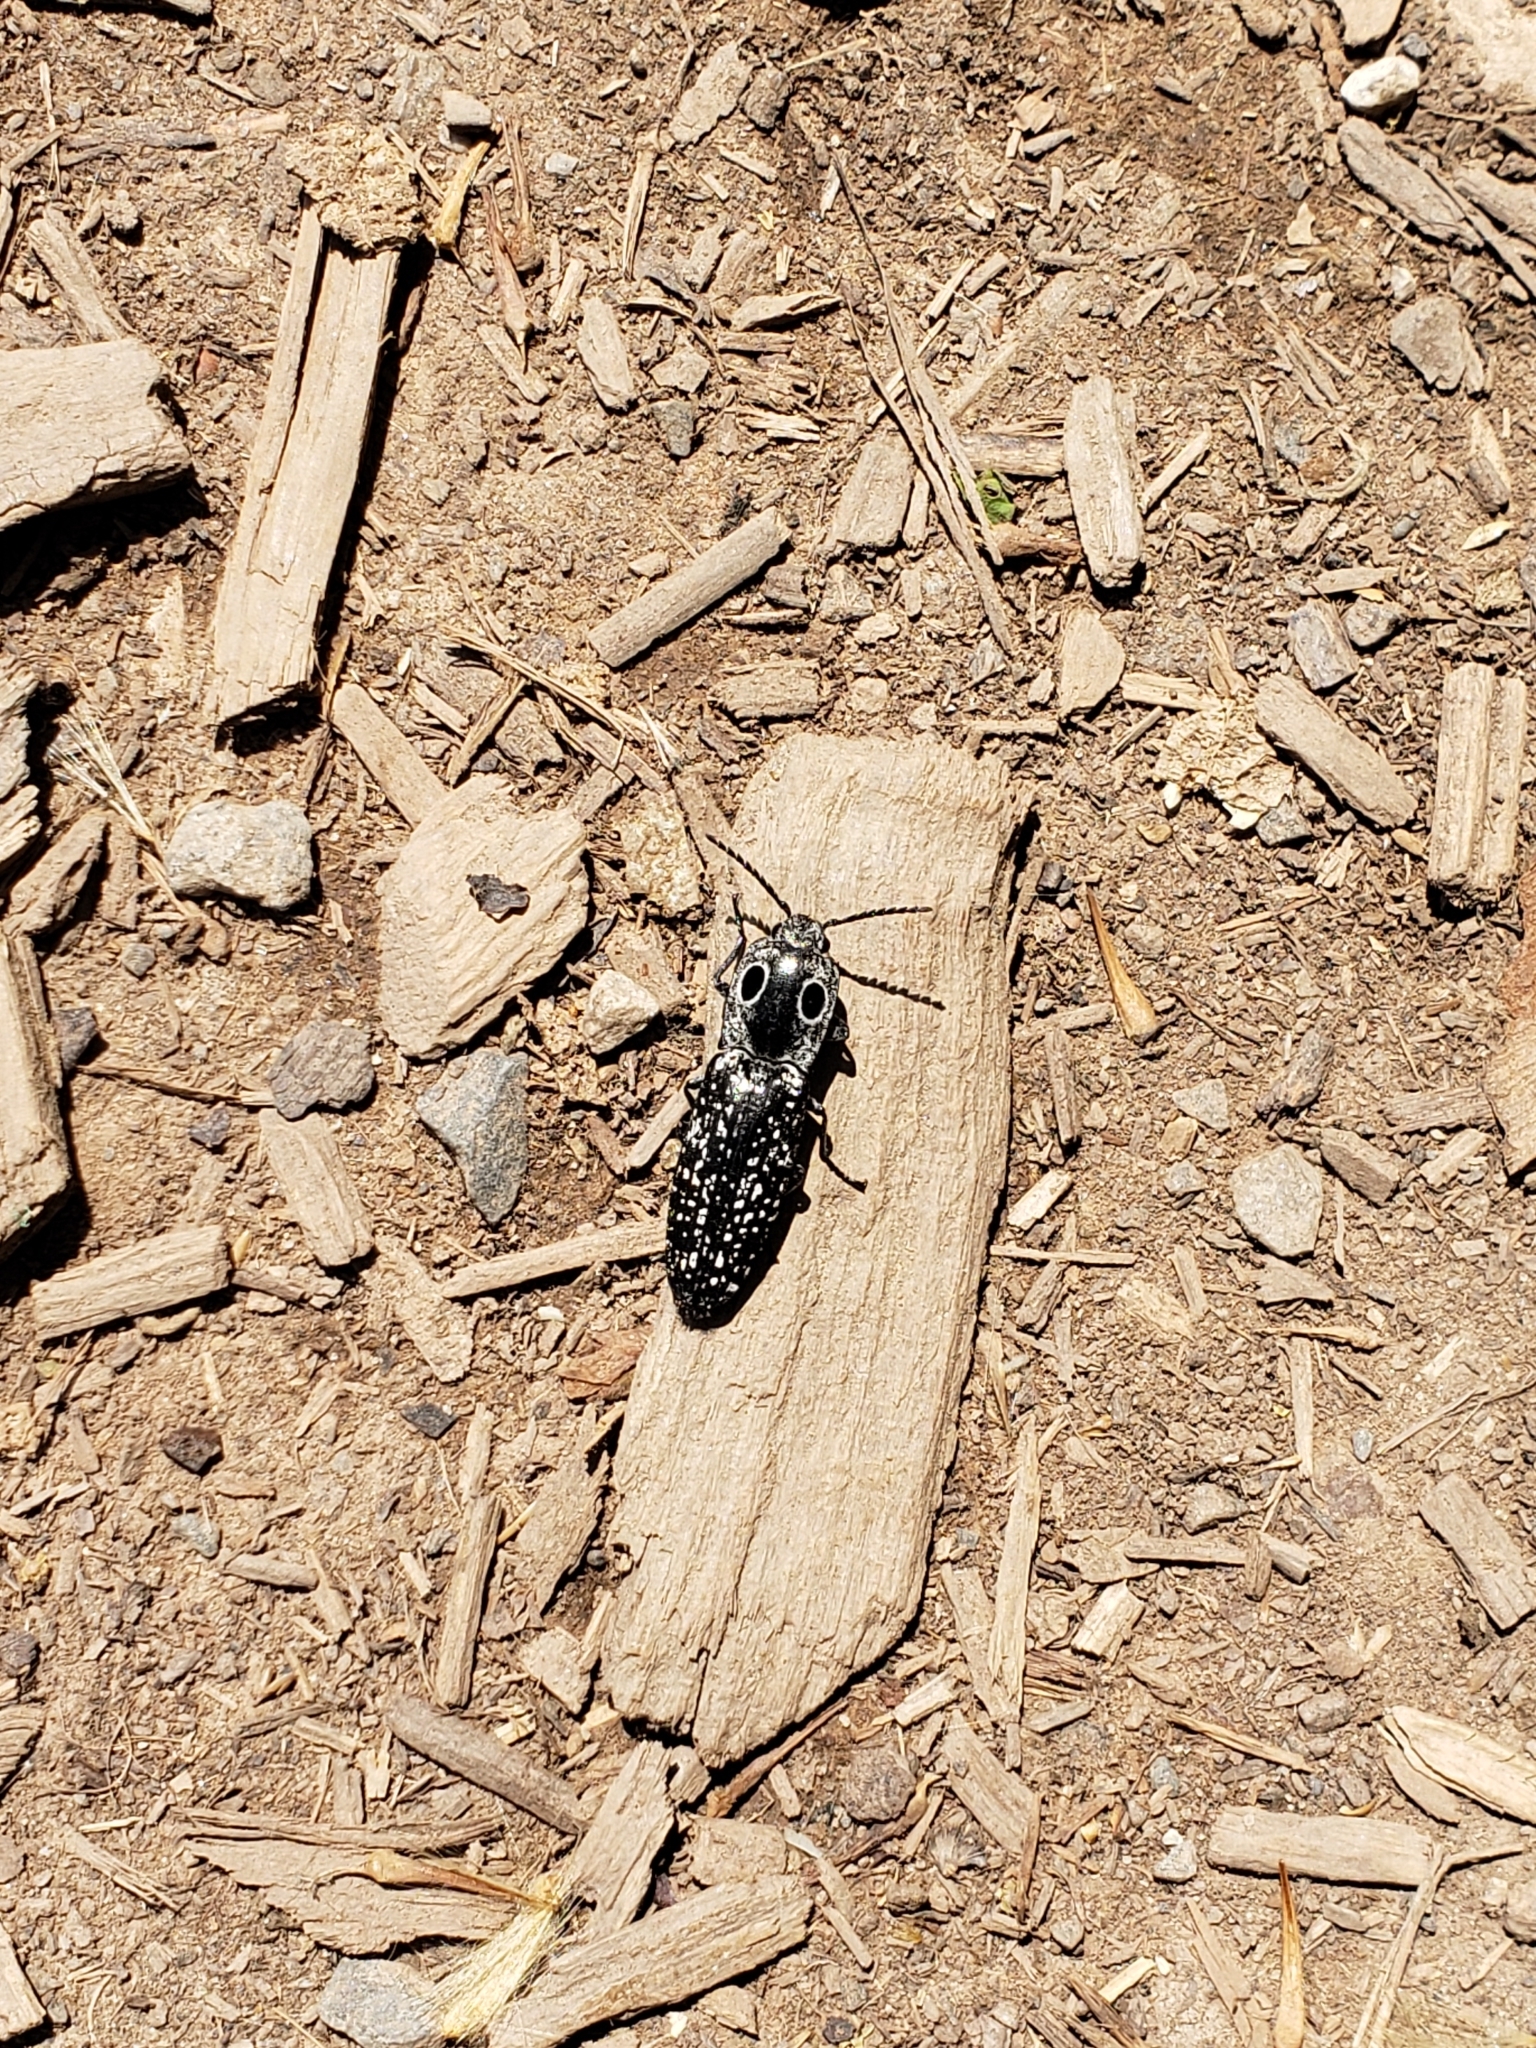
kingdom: Animalia
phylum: Arthropoda
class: Insecta
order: Coleoptera
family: Elateridae
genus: Alaus
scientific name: Alaus oculatus
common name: Eastern eyed click beetle
